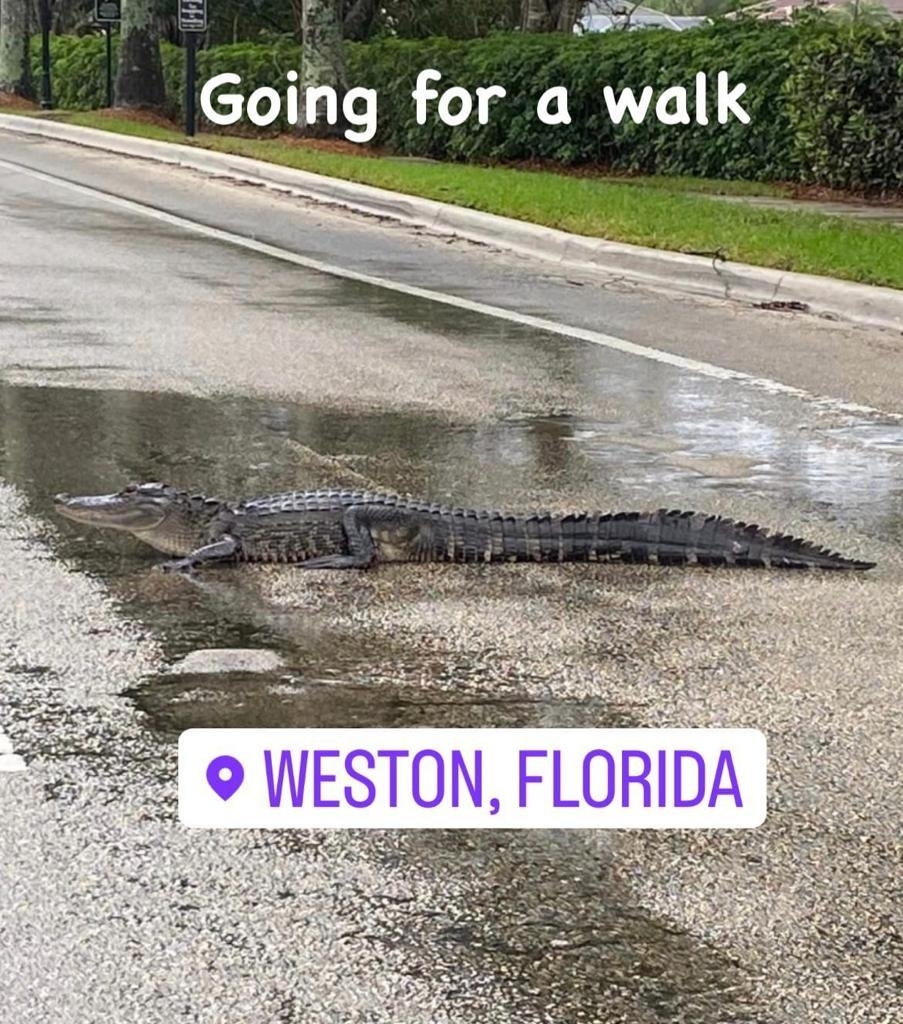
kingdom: Animalia
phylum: Chordata
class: Crocodylia
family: Alligatoridae
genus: Alligator
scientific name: Alligator mississippiensis
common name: American alligator
